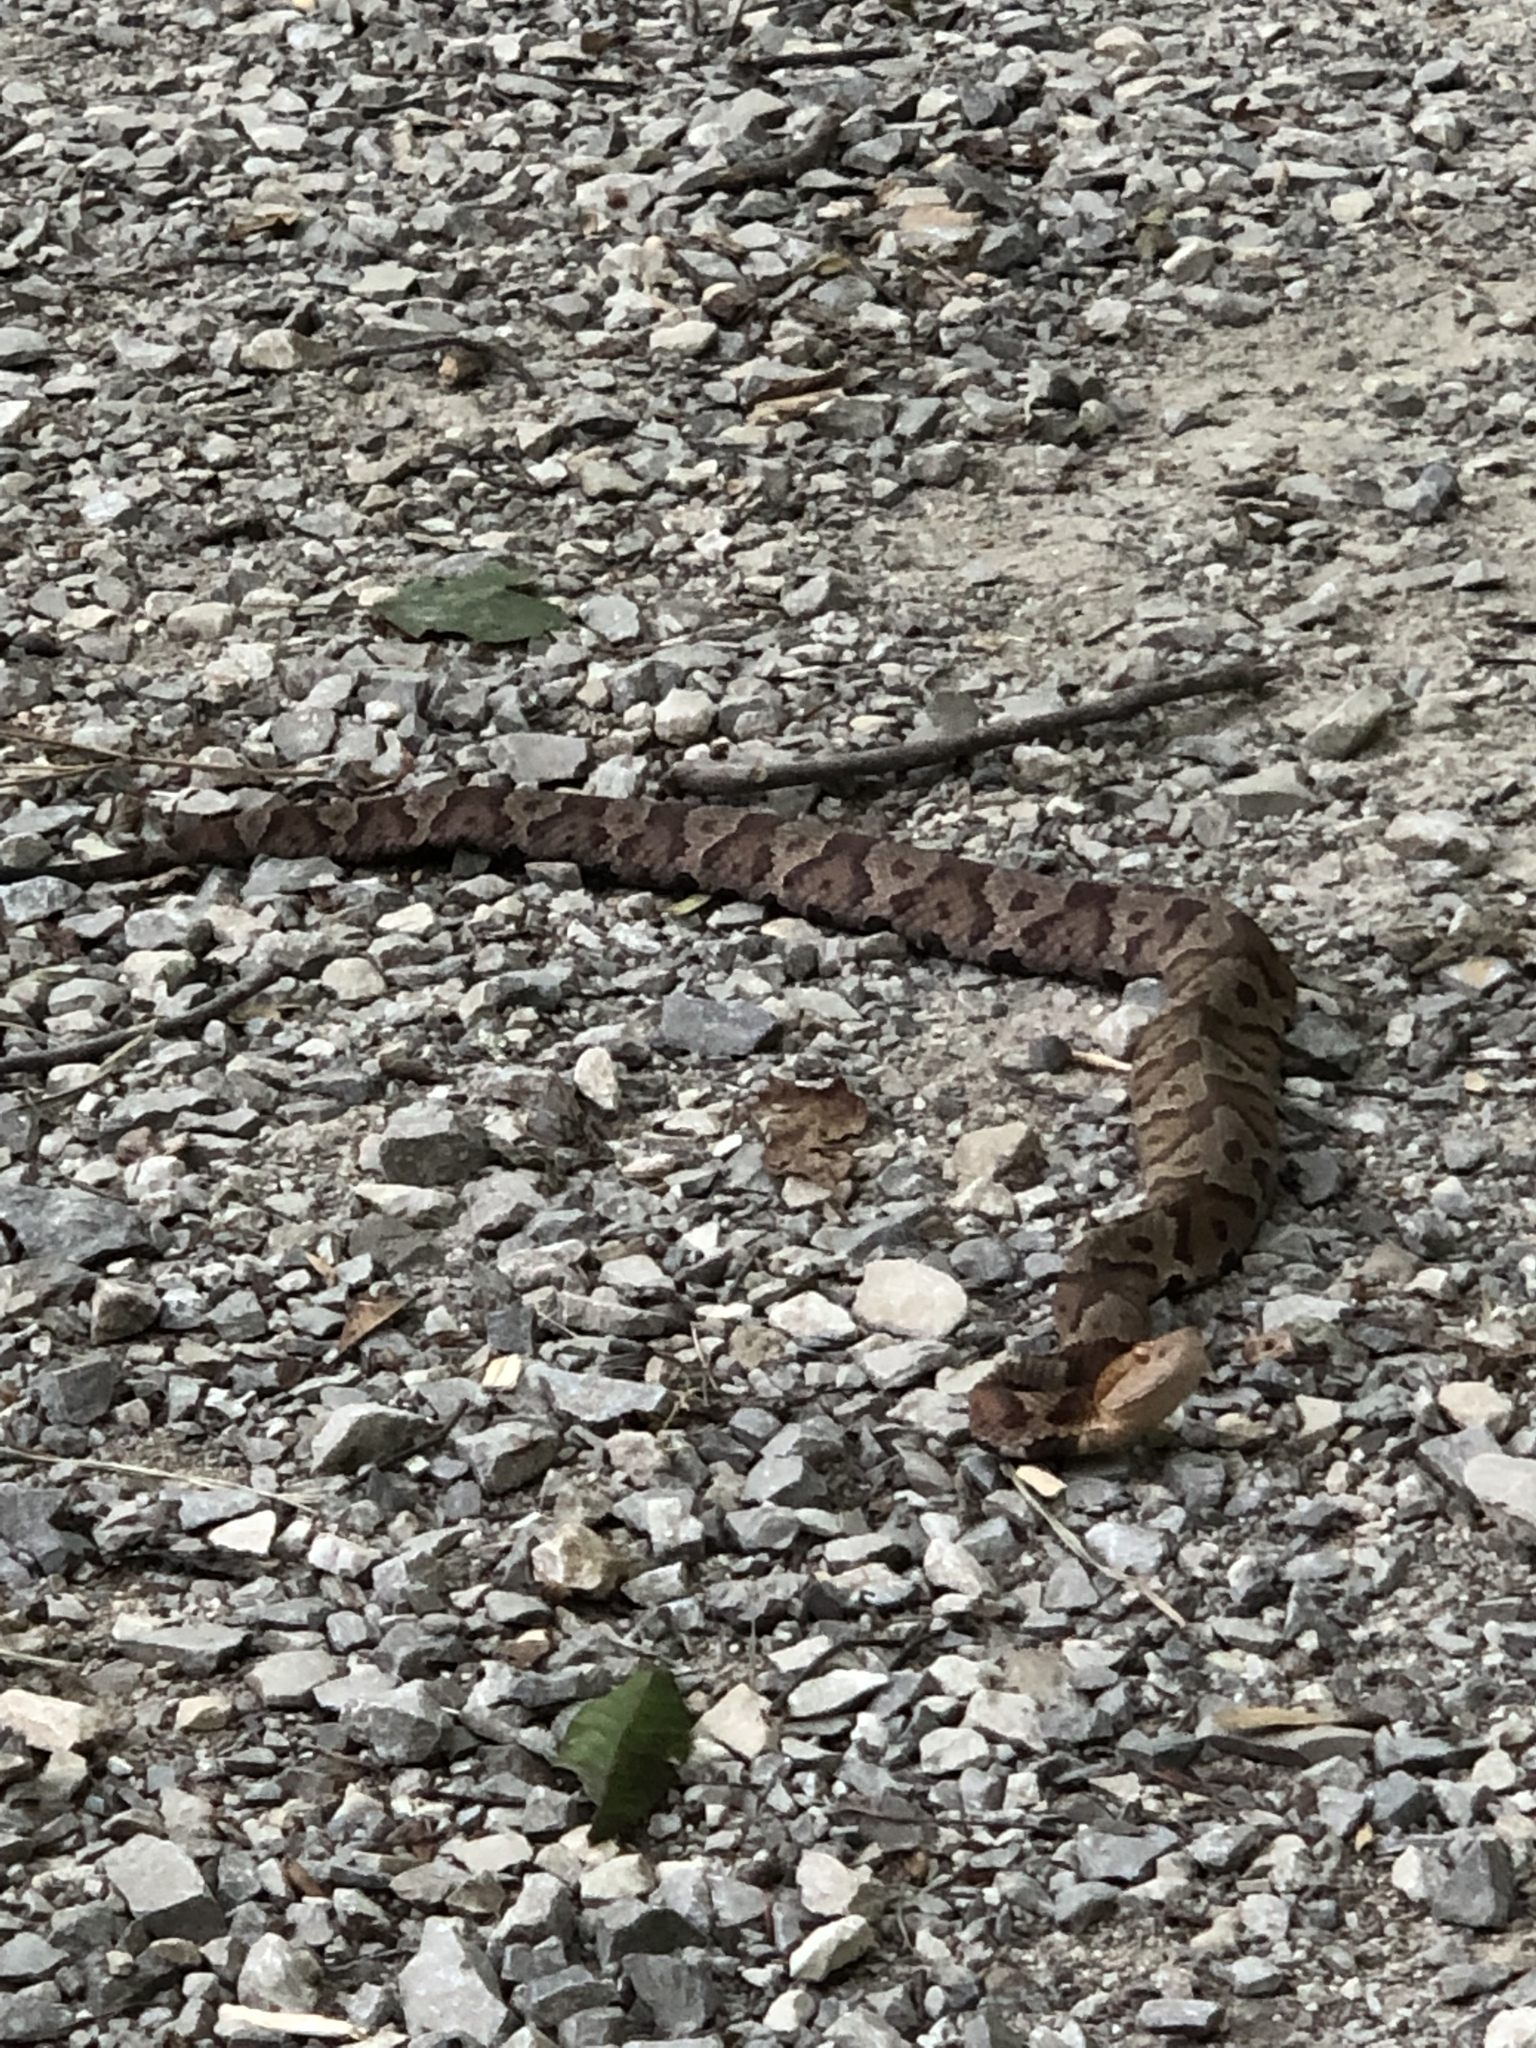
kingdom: Animalia
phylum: Chordata
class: Squamata
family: Viperidae
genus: Agkistrodon
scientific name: Agkistrodon contortrix
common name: Northern copperhead
